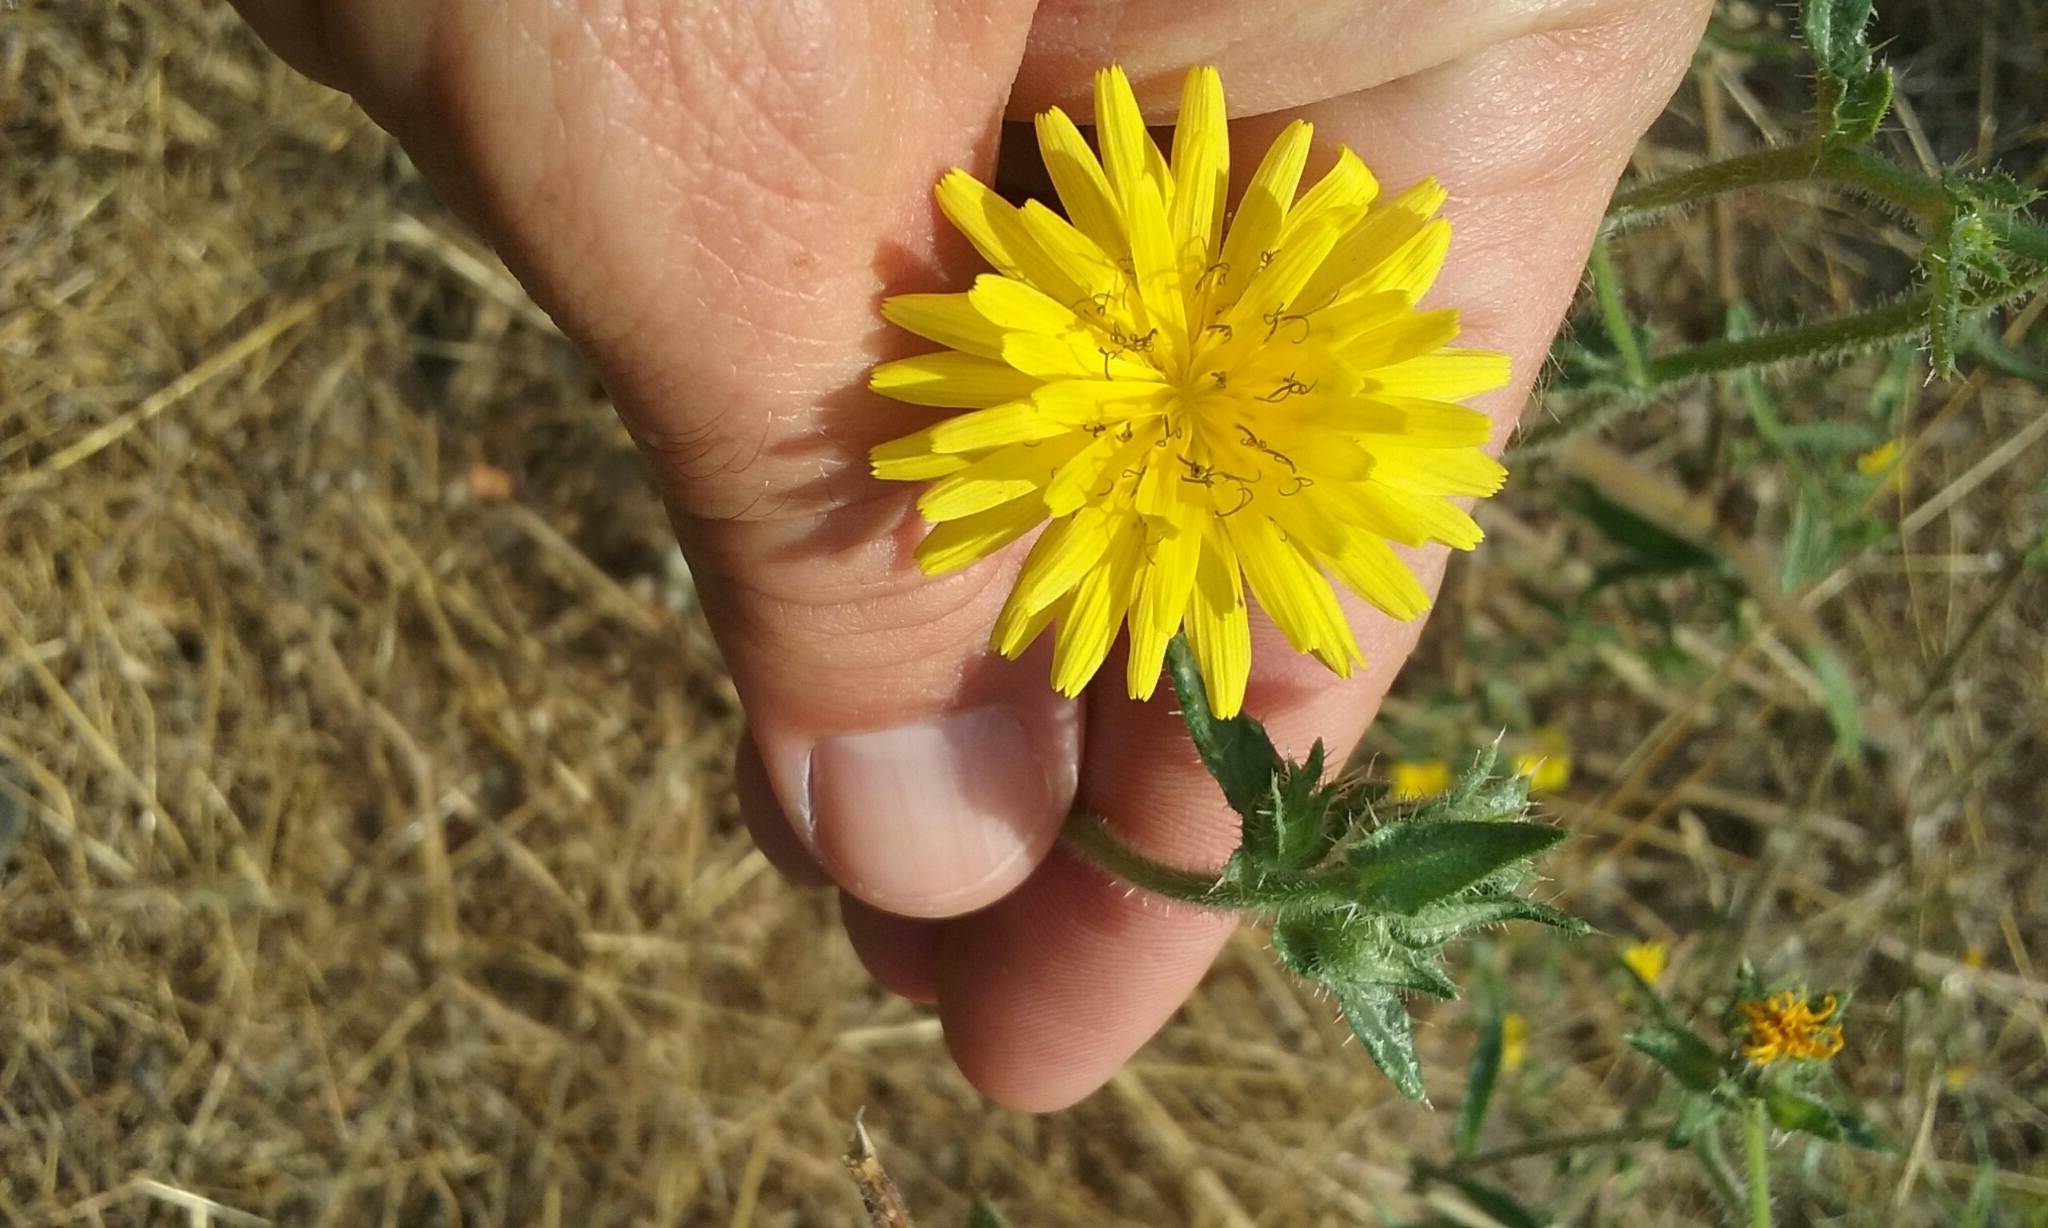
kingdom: Plantae
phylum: Tracheophyta
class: Magnoliopsida
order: Asterales
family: Asteraceae
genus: Helminthotheca
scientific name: Helminthotheca echioides
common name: Ox-tongue
